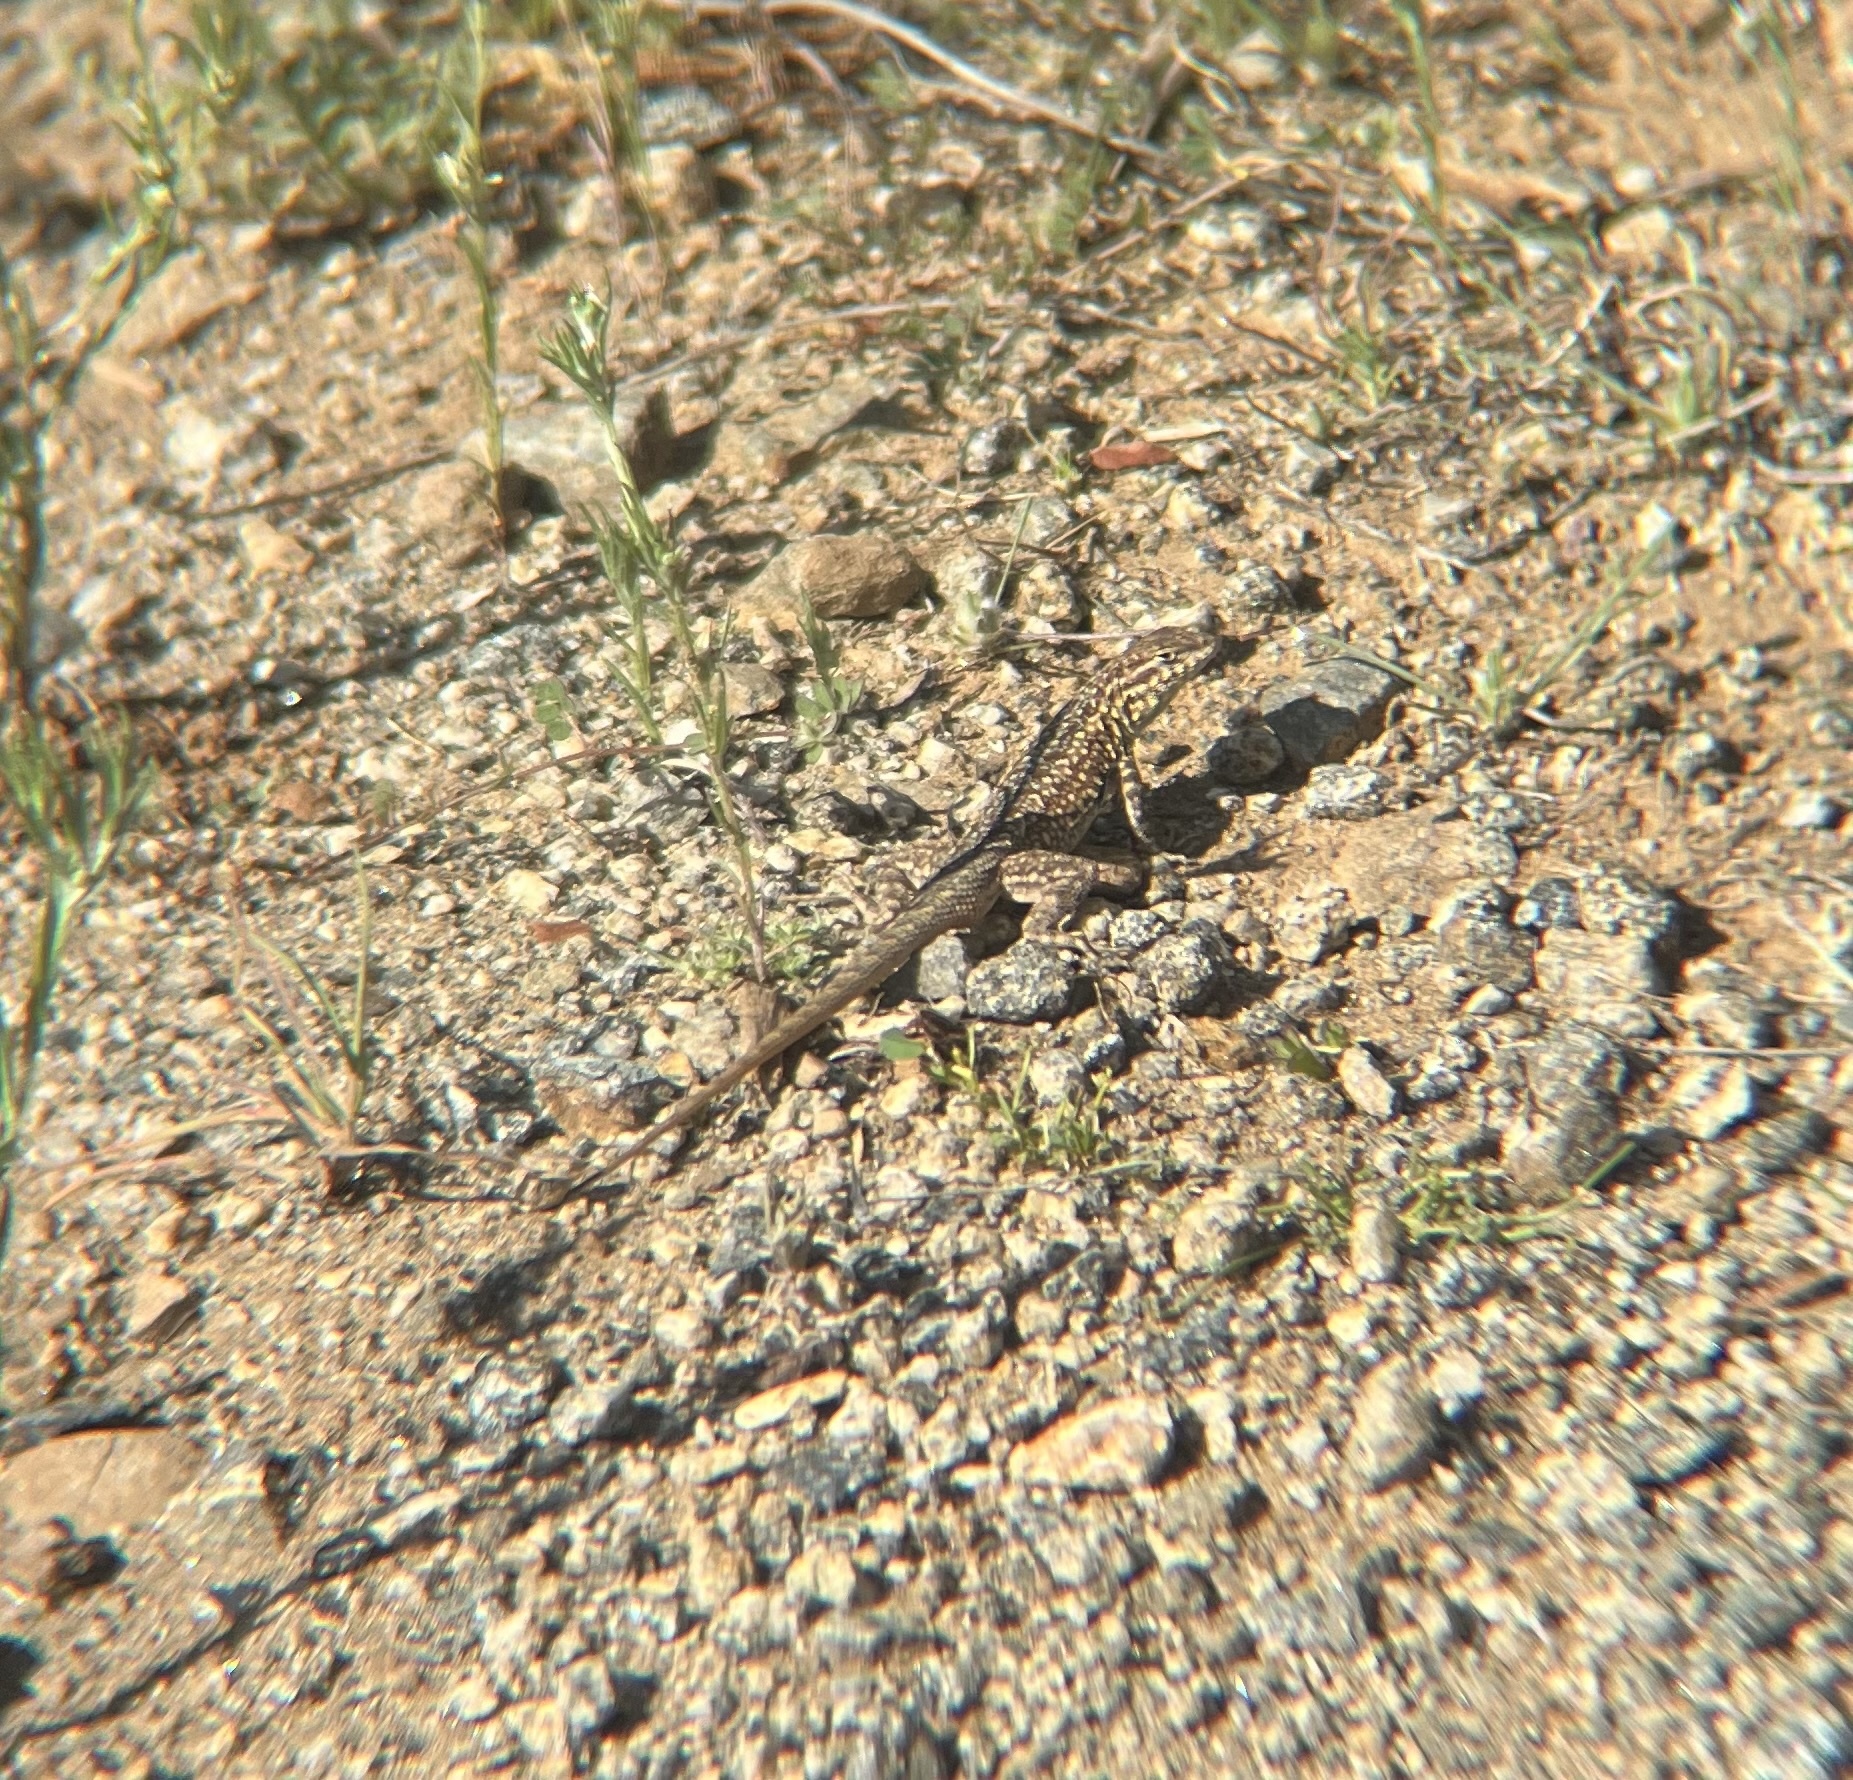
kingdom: Animalia
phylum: Chordata
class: Squamata
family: Phrynosomatidae
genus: Uta
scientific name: Uta stansburiana
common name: Side-blotched lizard
